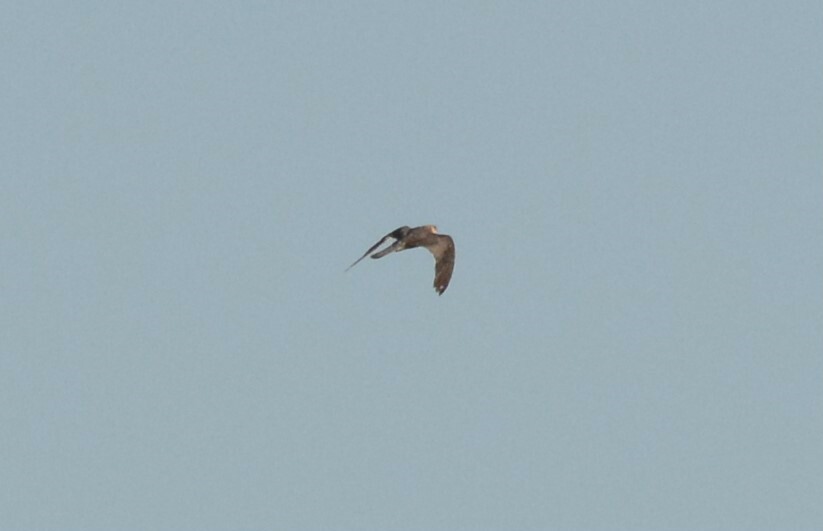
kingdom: Animalia
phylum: Chordata
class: Aves
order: Falconiformes
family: Falconidae
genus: Falco
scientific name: Falco vespertinus
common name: Red-footed falcon
